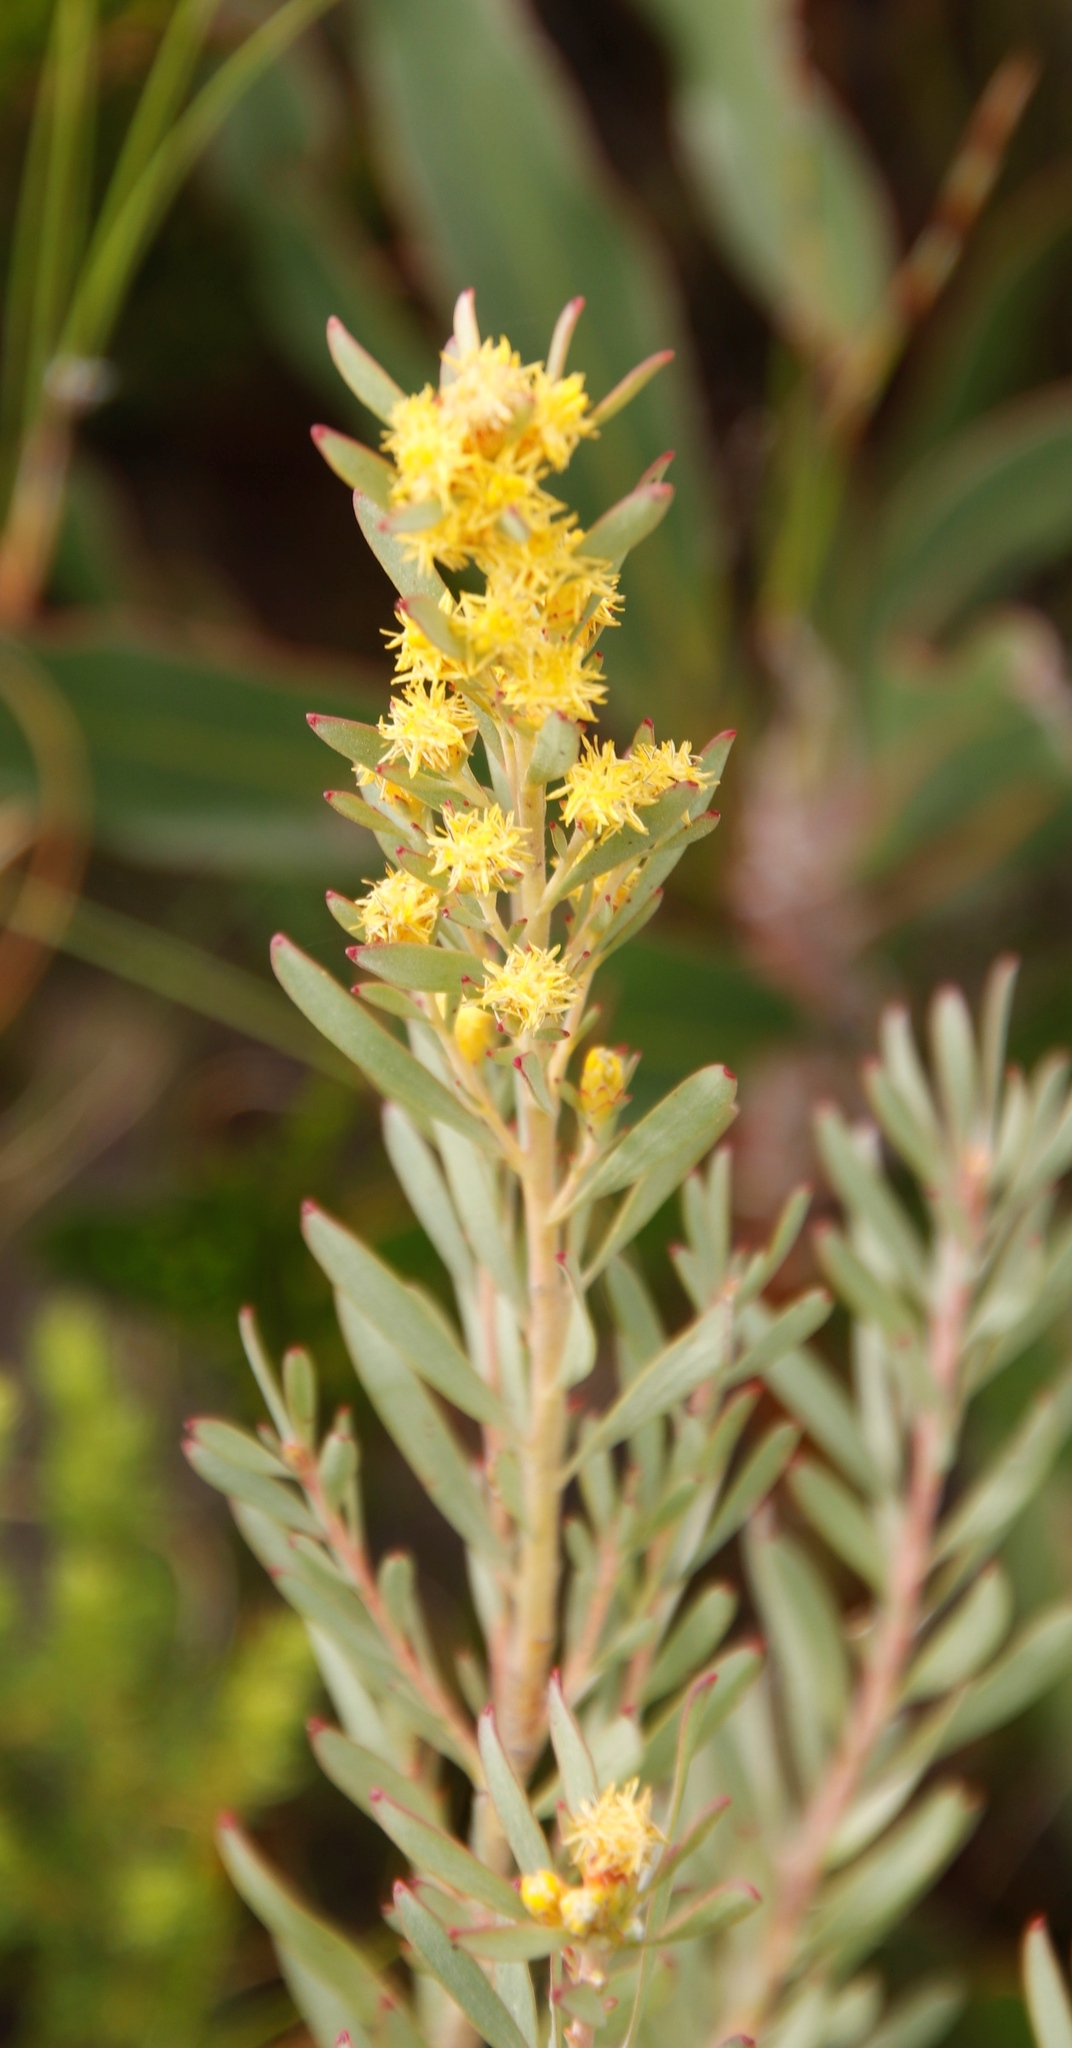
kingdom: Plantae
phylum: Tracheophyta
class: Magnoliopsida
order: Proteales
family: Proteaceae
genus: Leucadendron
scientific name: Leucadendron rubrum
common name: Spinning top
